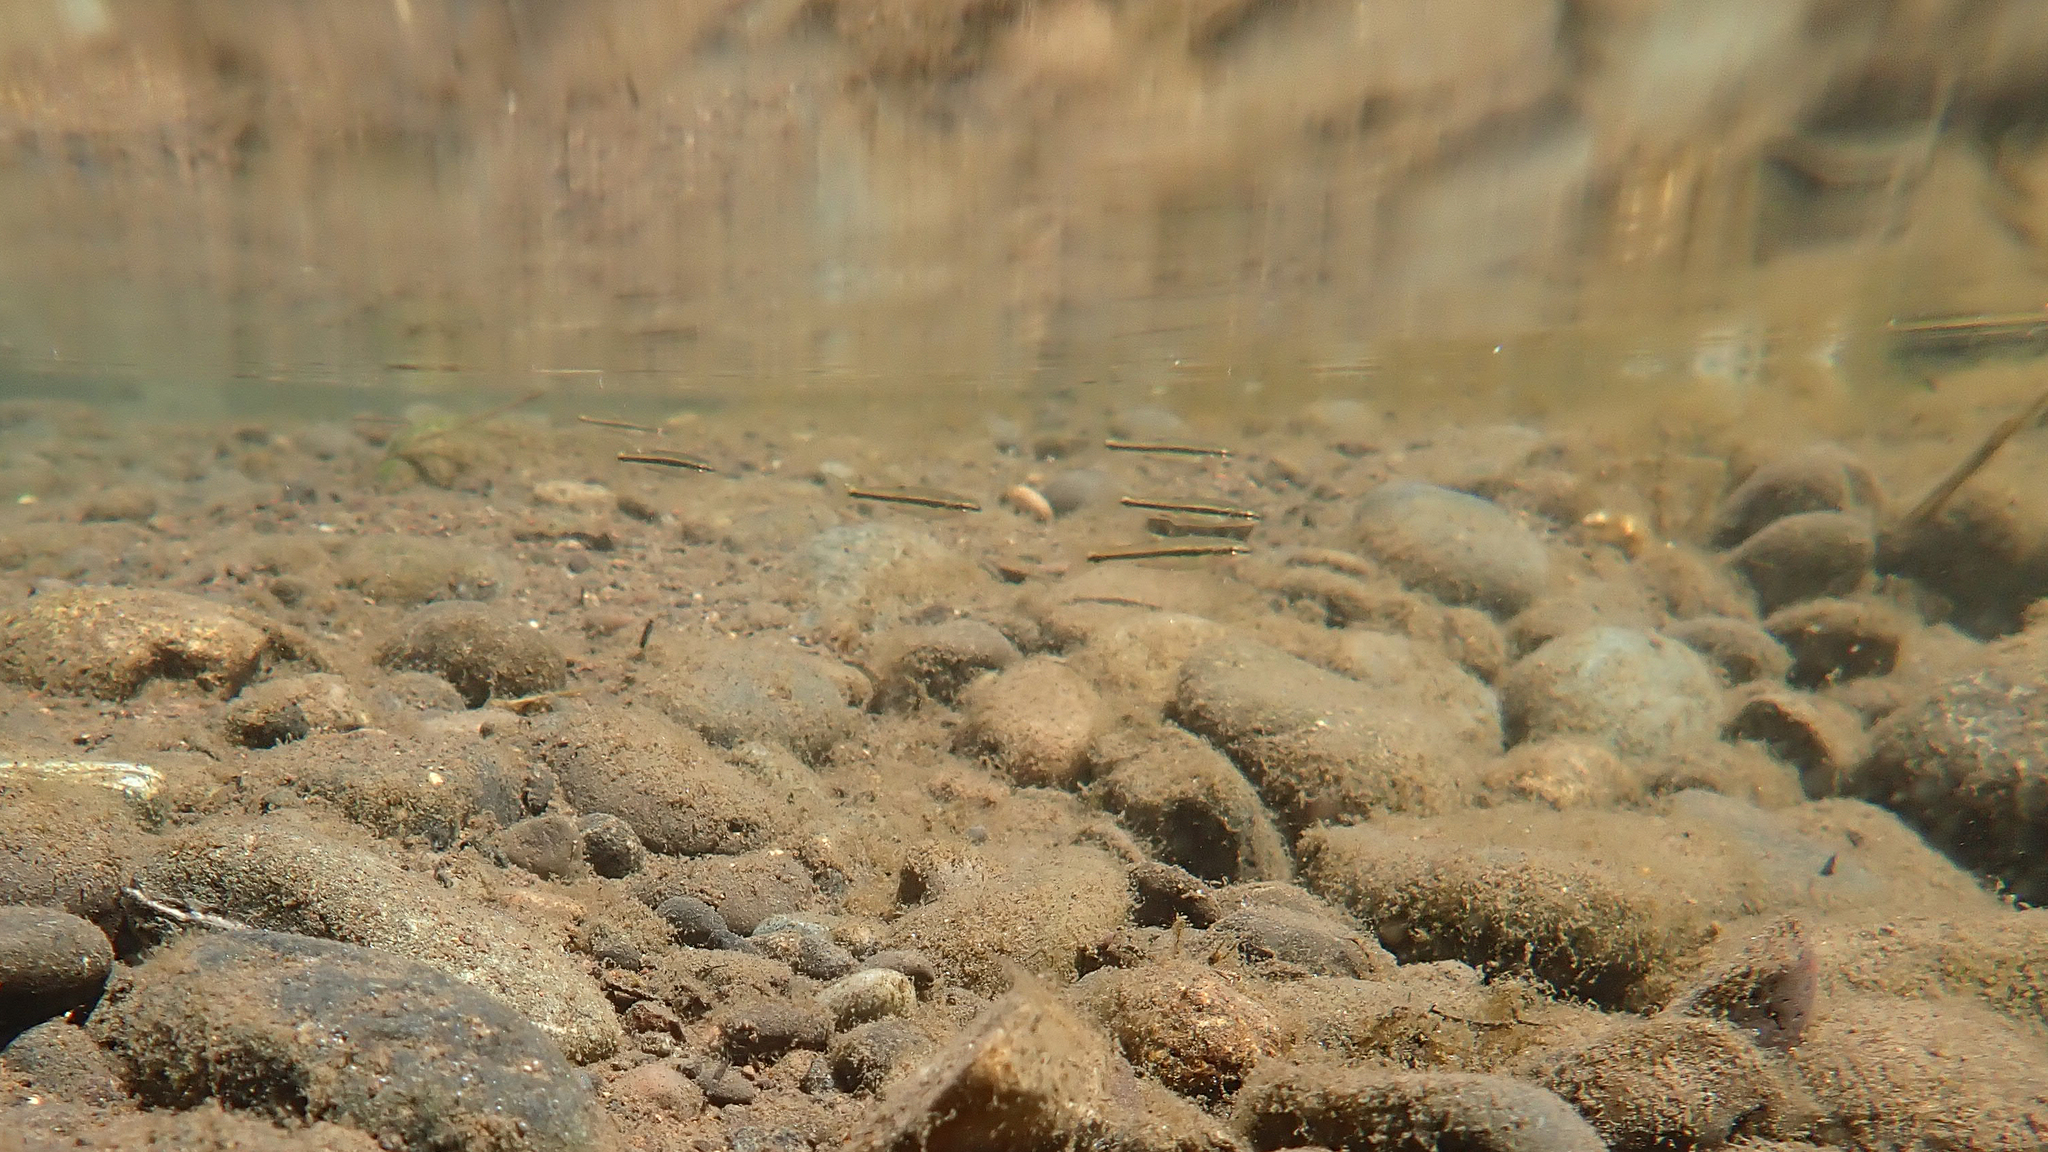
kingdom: Animalia
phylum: Chordata
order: Cypriniformes
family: Cyprinidae
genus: Rhinichthys
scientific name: Rhinichthys osculus
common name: Speckled dace
